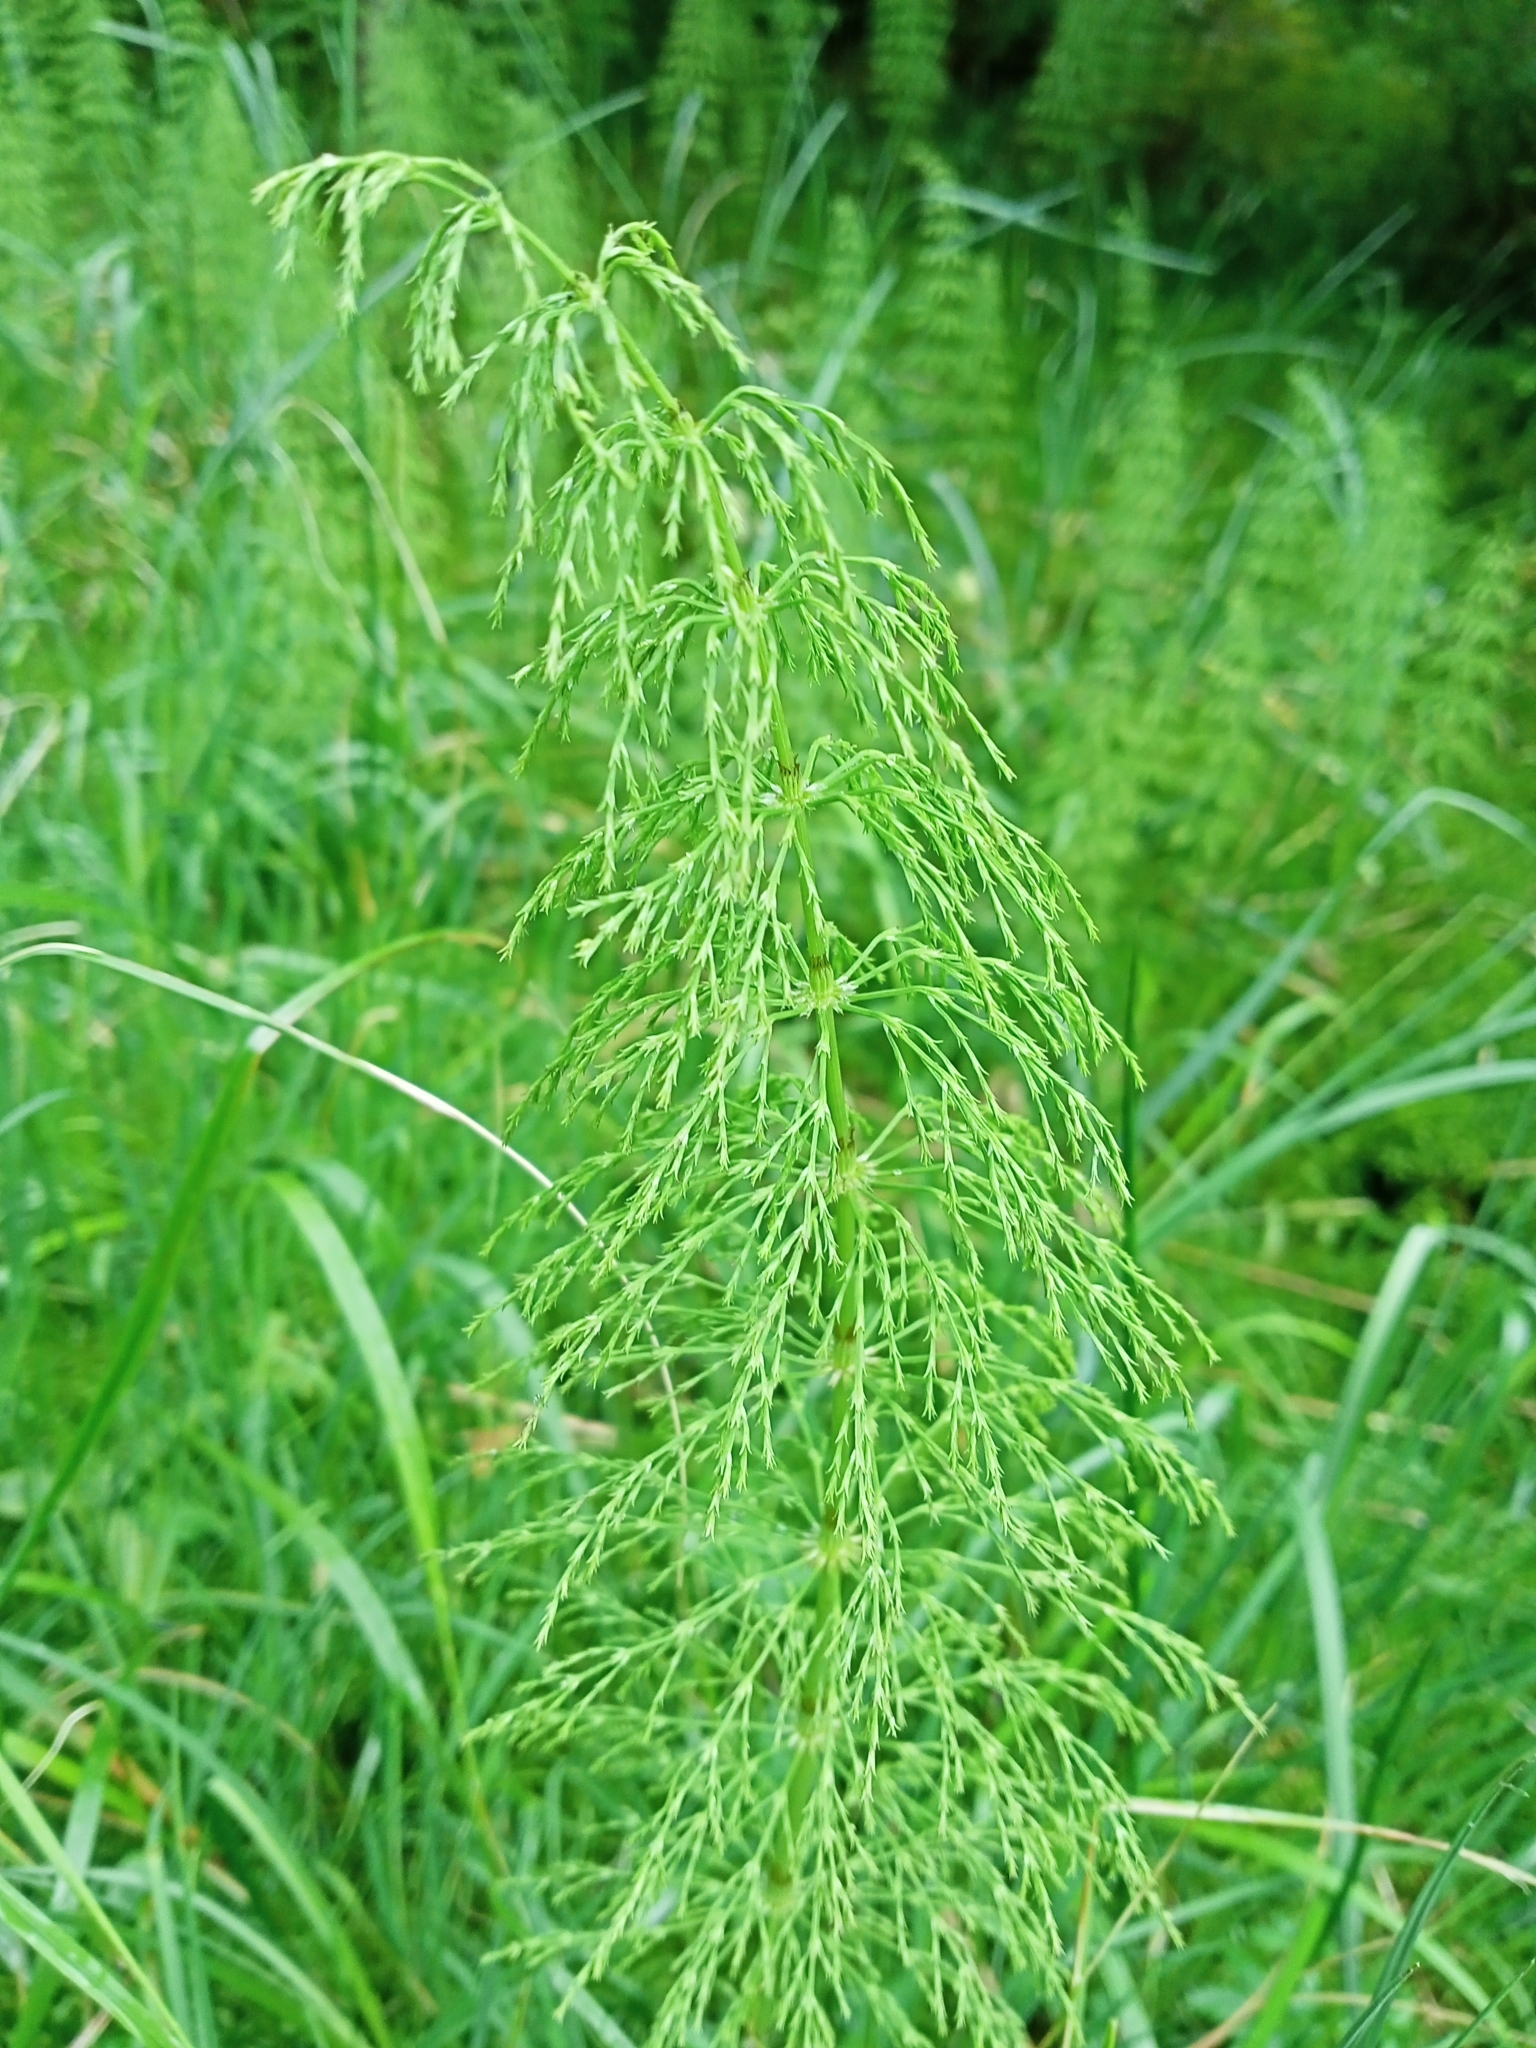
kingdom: Plantae
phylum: Tracheophyta
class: Polypodiopsida
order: Equisetales
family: Equisetaceae
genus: Equisetum
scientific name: Equisetum sylvaticum
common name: Wood horsetail
